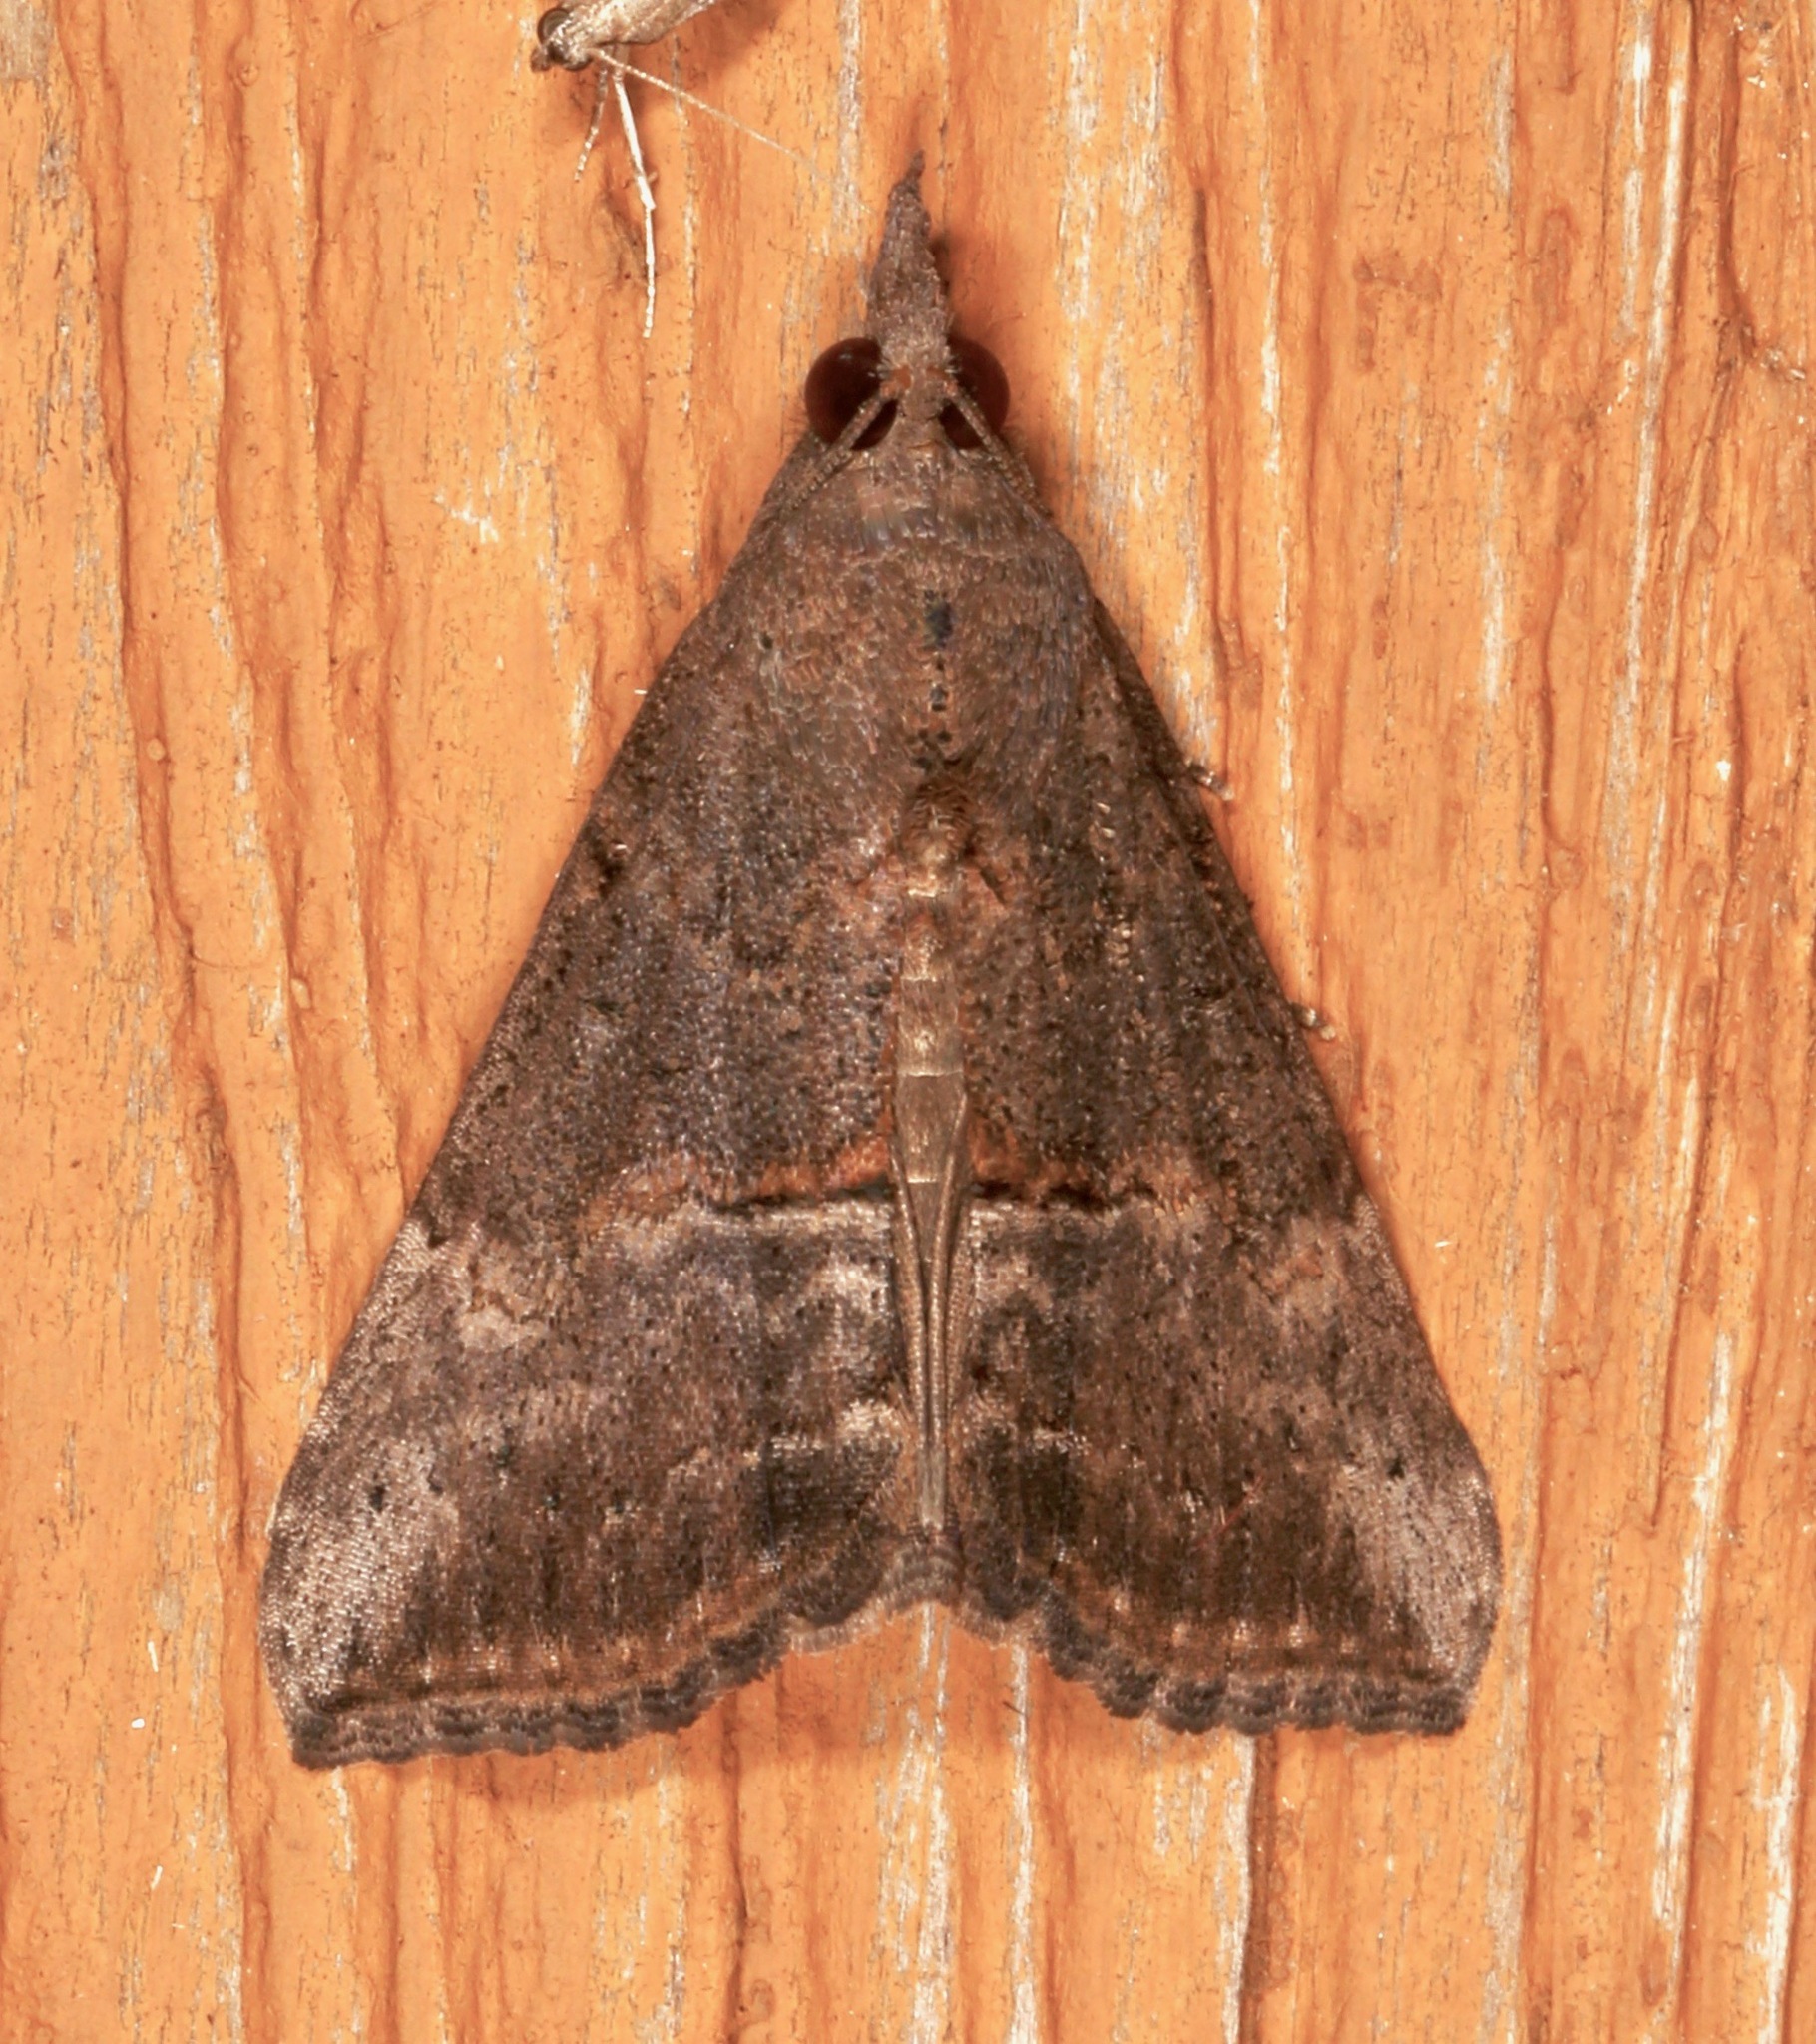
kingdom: Animalia
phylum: Arthropoda
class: Insecta
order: Lepidoptera
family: Erebidae
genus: Hypena
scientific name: Hypena scabra
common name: Green cloverworm
